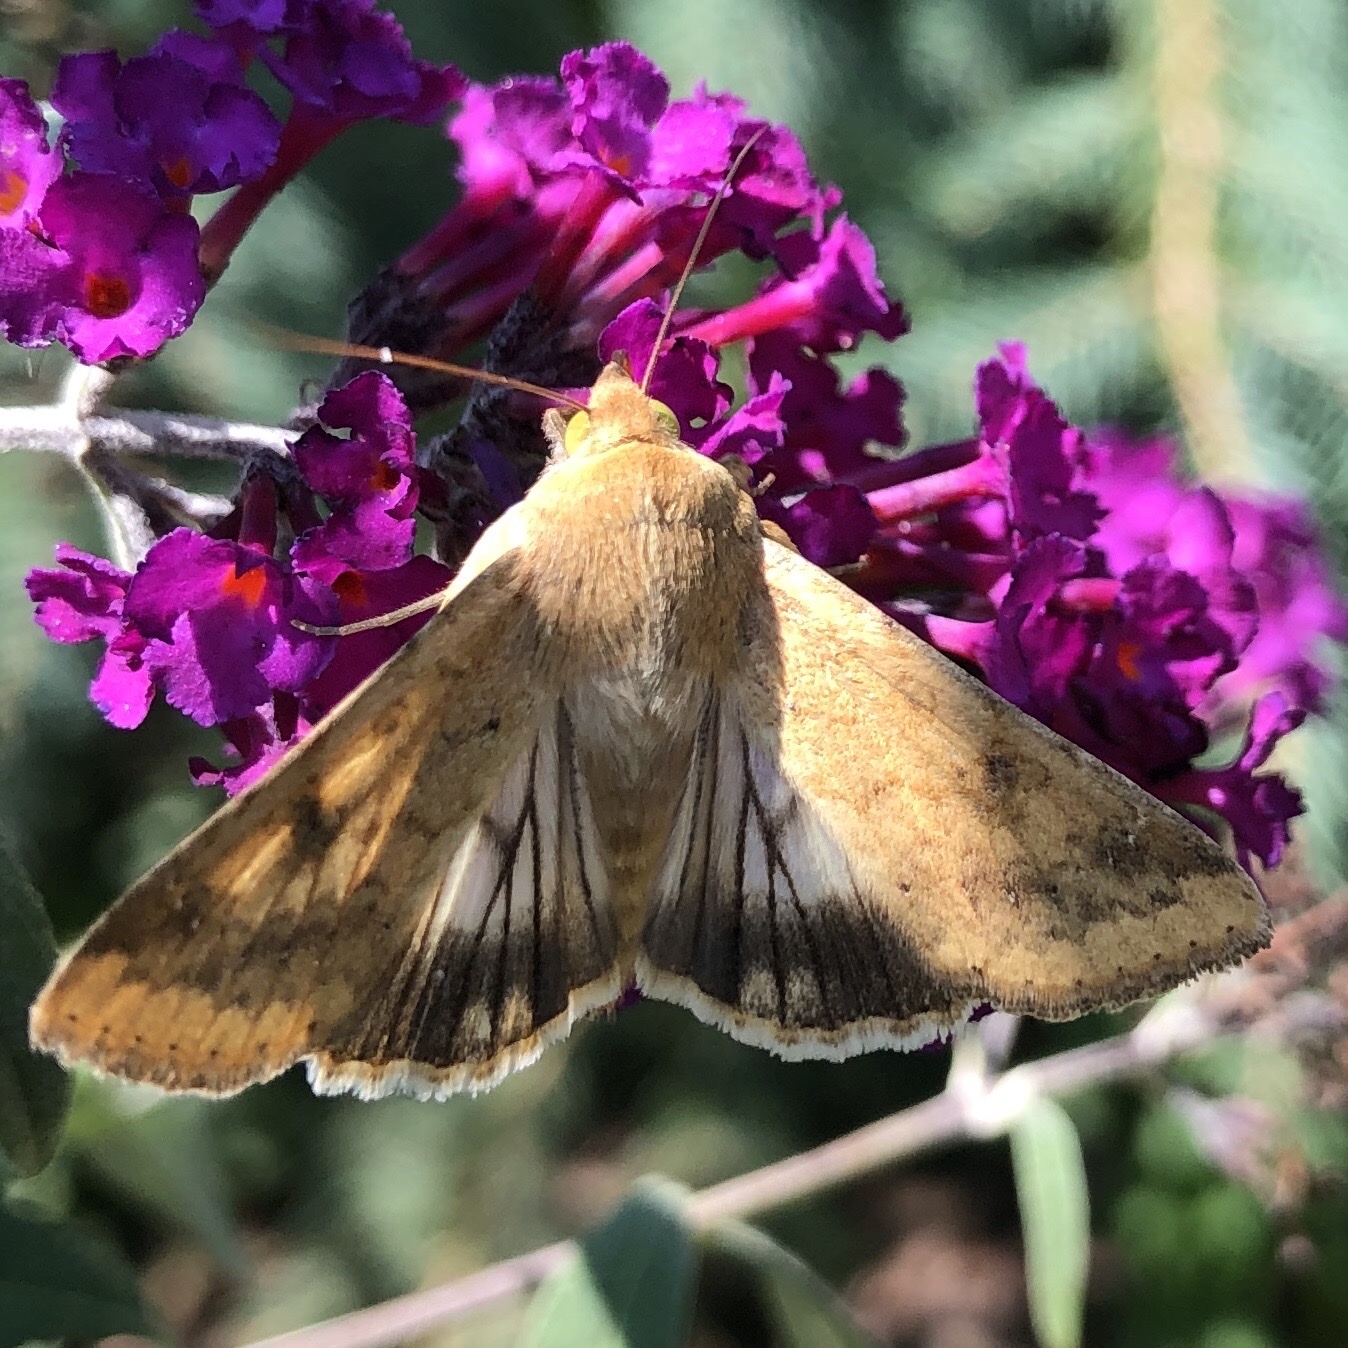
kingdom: Animalia
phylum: Arthropoda
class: Insecta
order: Lepidoptera
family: Noctuidae
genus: Helicoverpa
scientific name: Helicoverpa zea
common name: Bollworm
